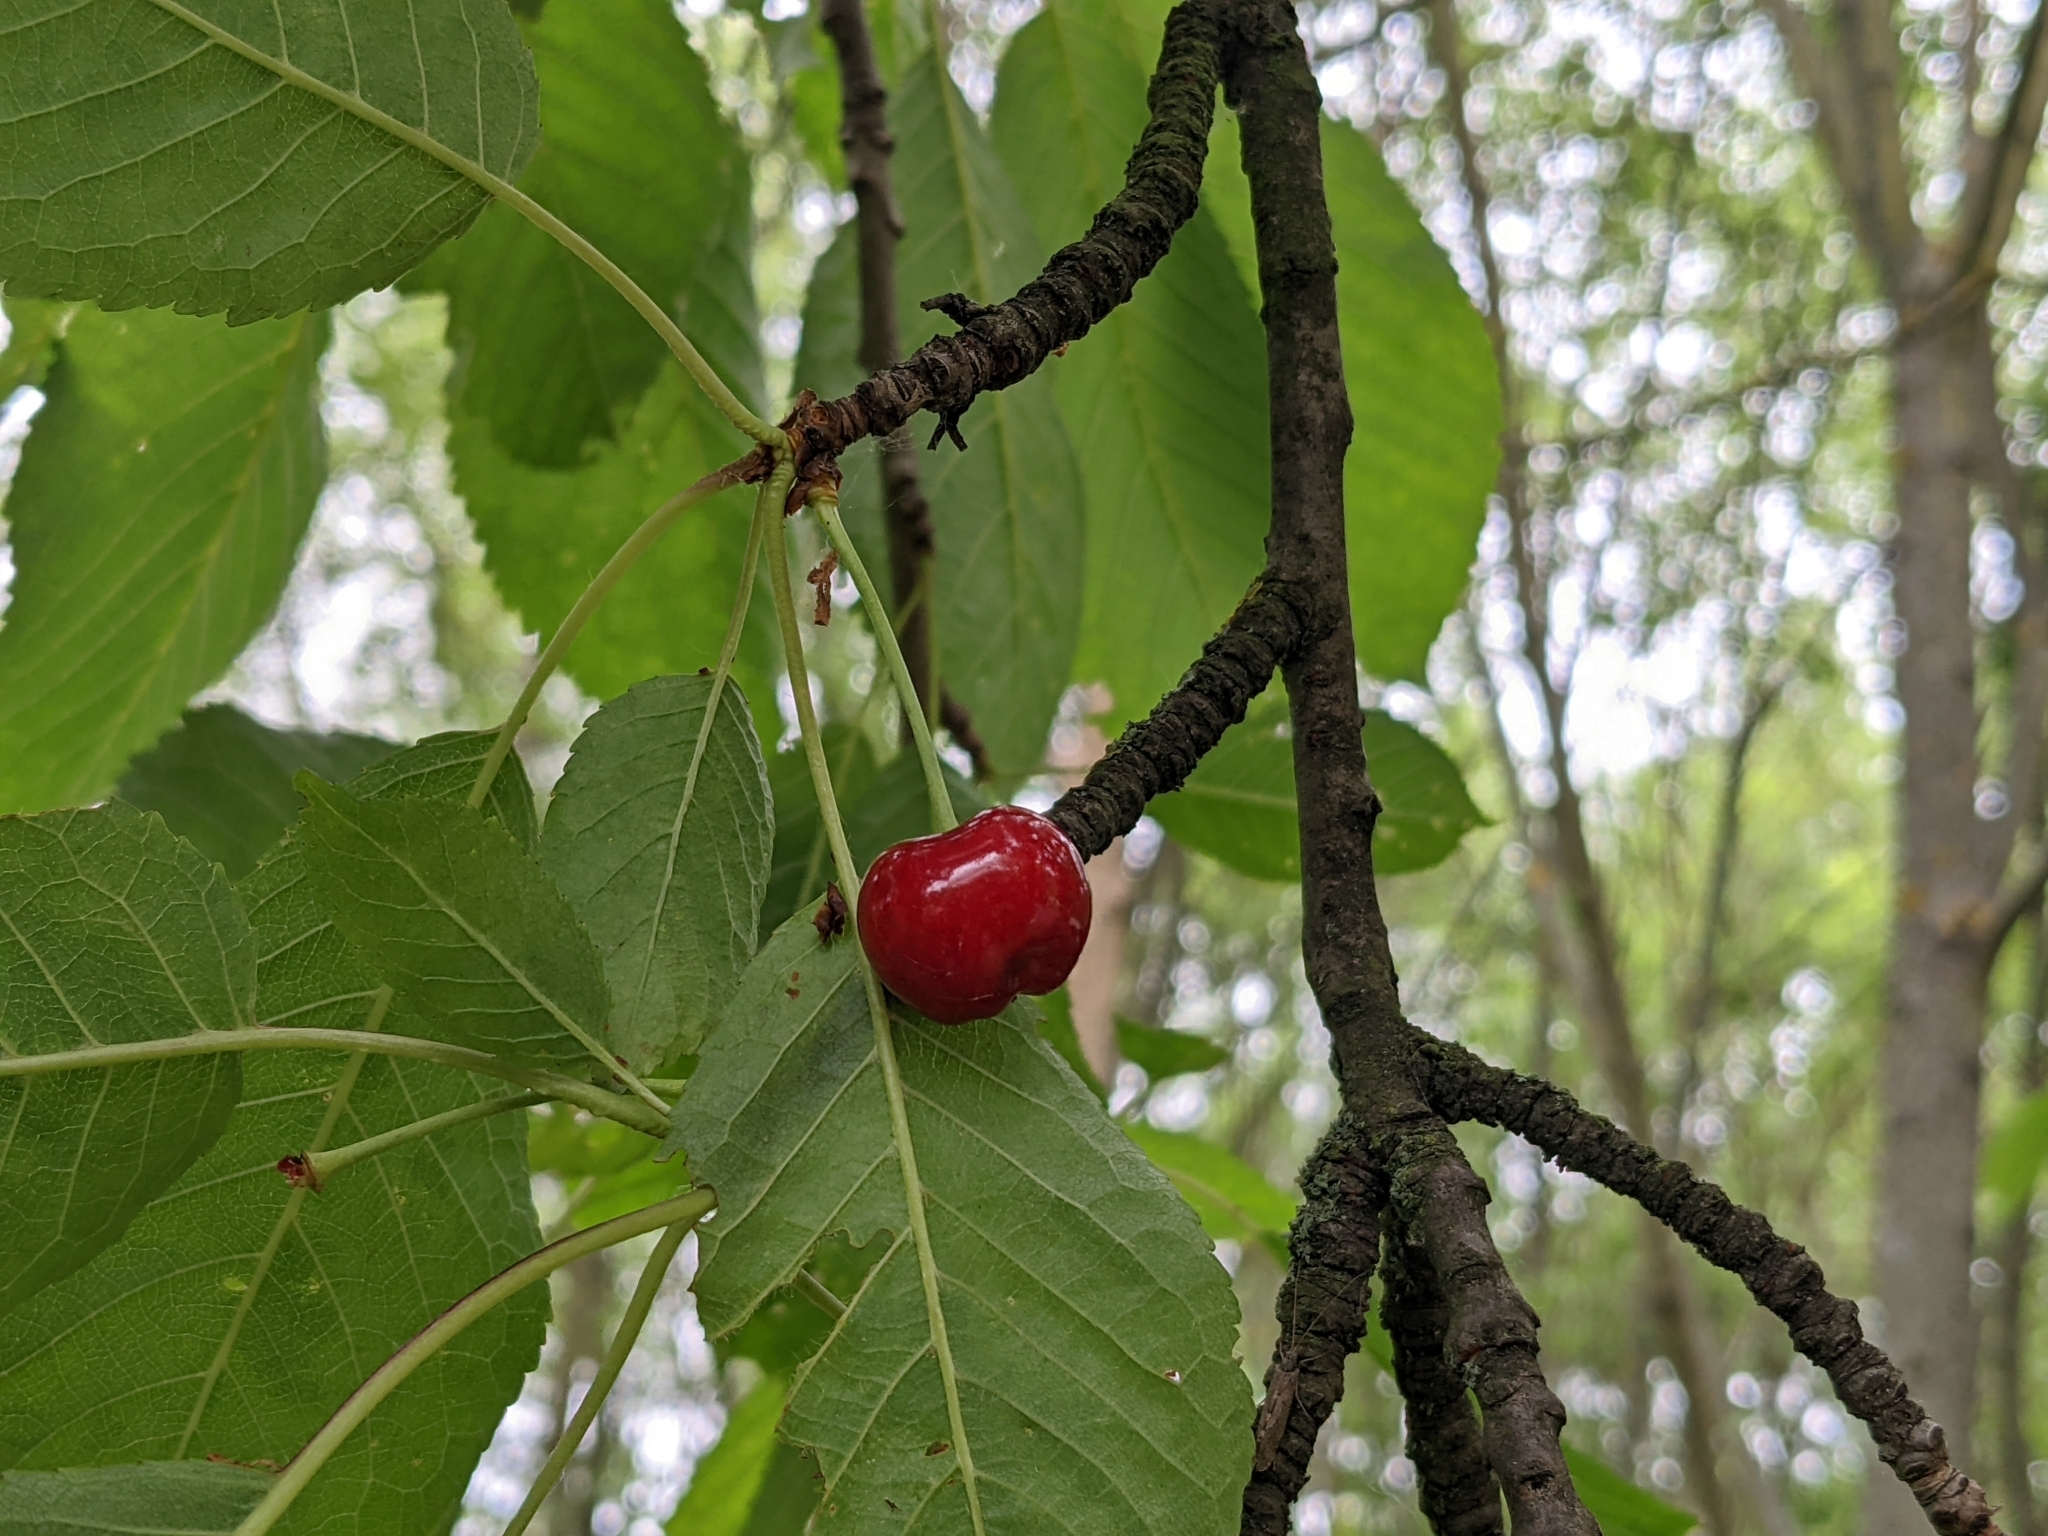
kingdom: Plantae
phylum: Tracheophyta
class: Magnoliopsida
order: Rosales
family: Rosaceae
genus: Prunus
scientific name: Prunus avium
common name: Sweet cherry
